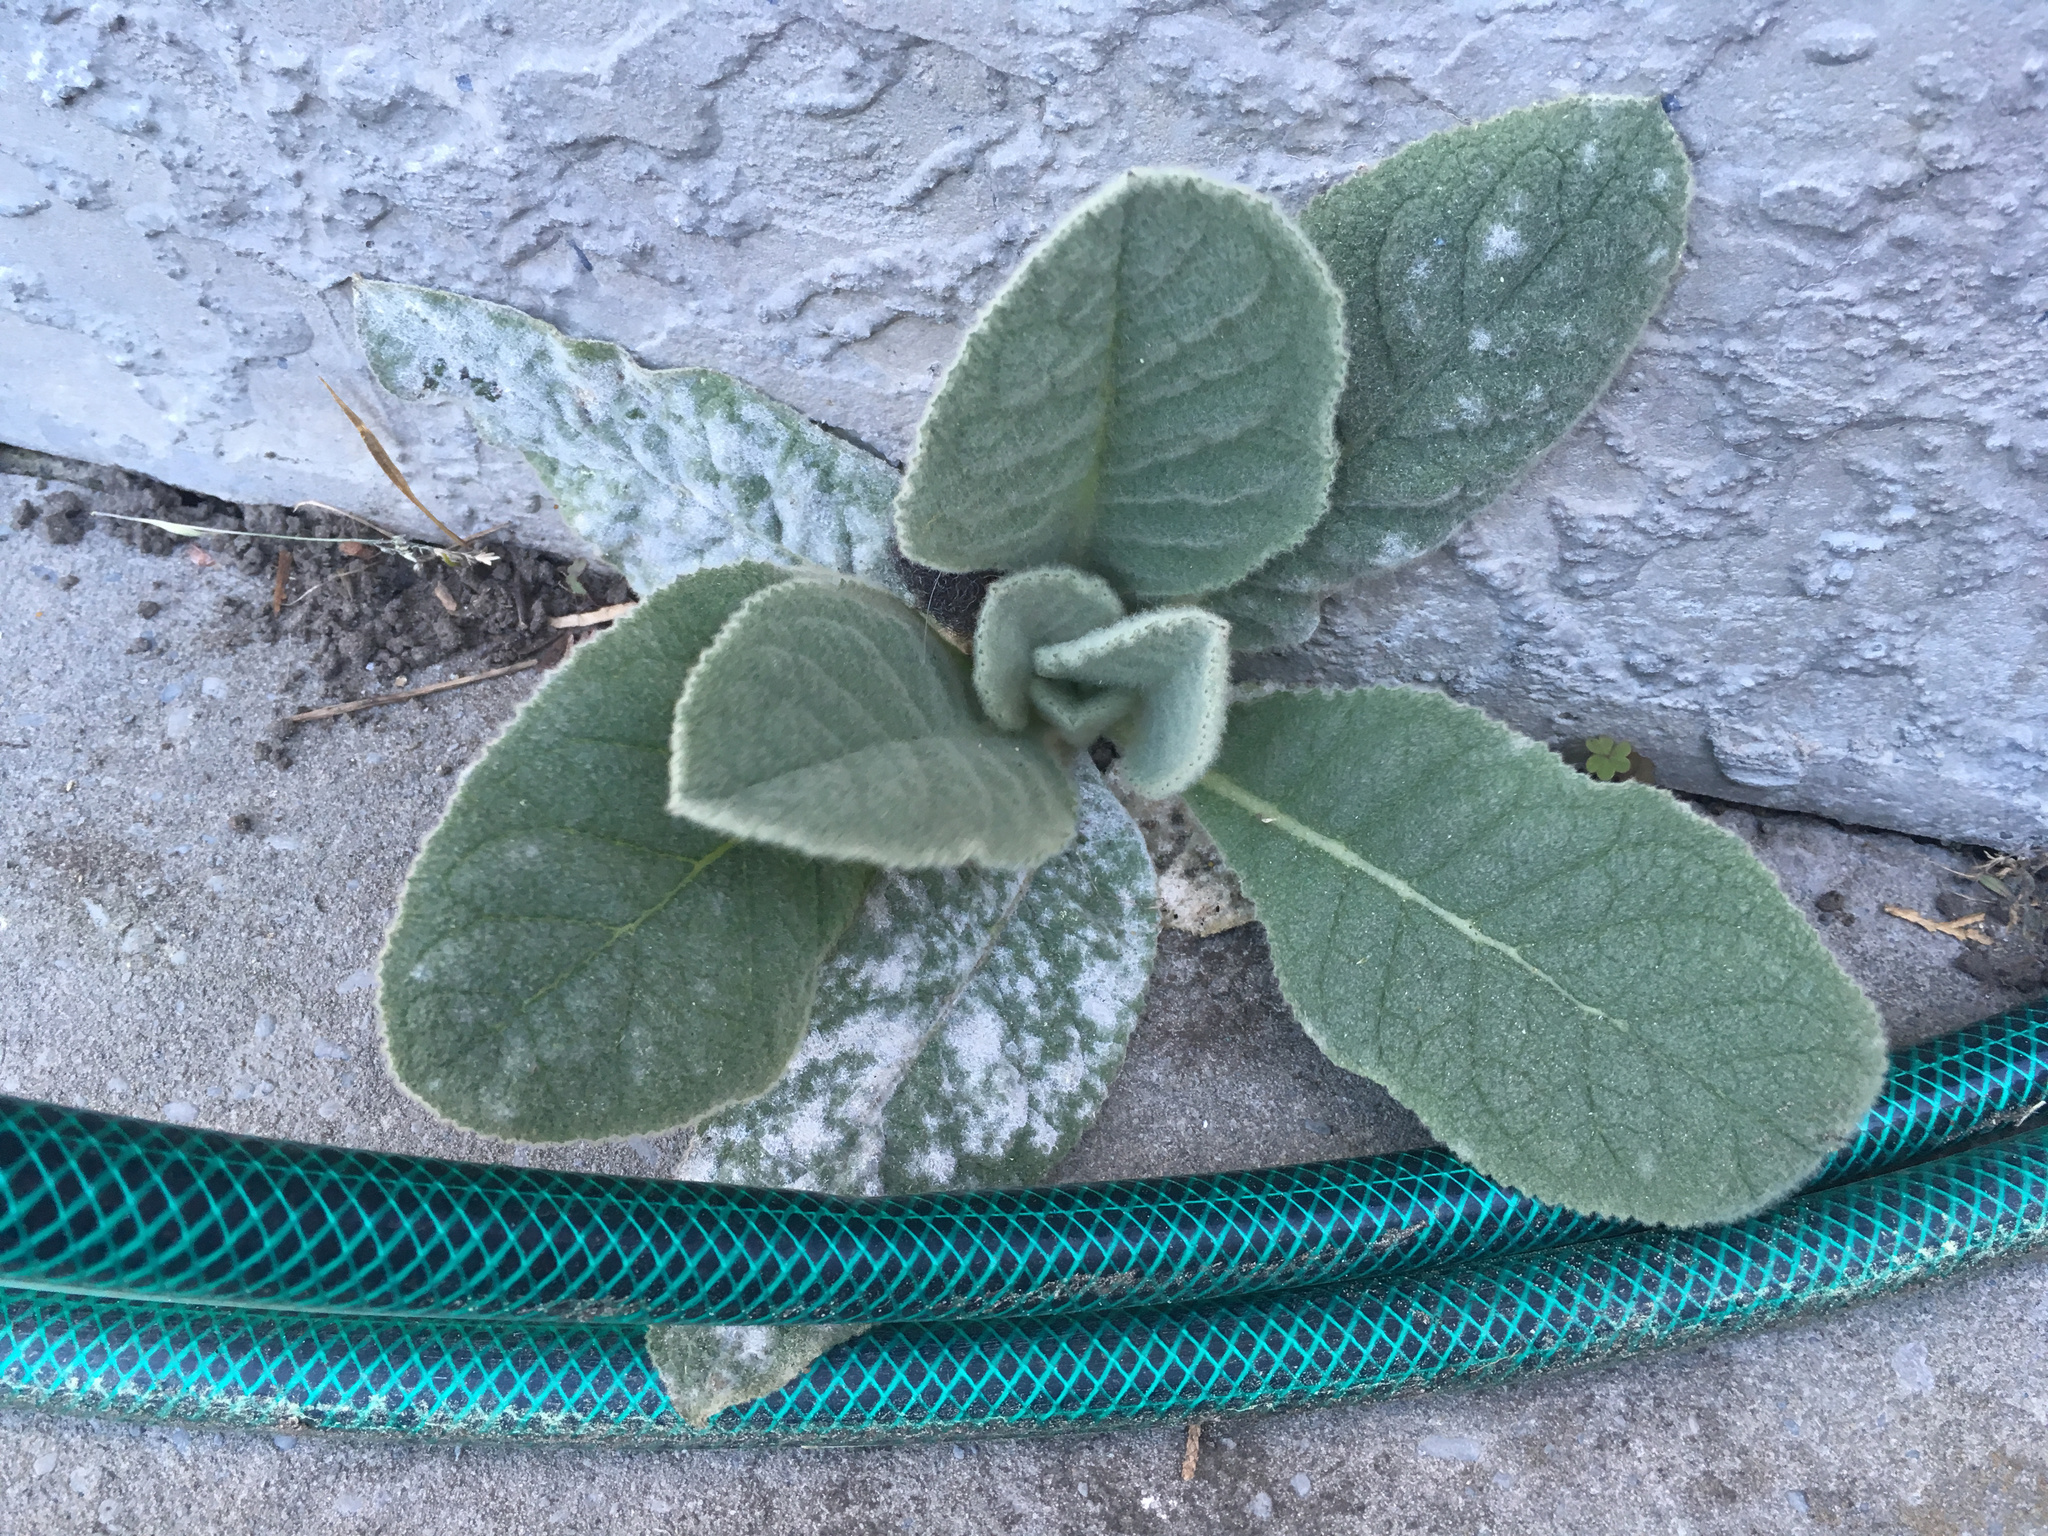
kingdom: Plantae
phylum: Tracheophyta
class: Magnoliopsida
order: Lamiales
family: Scrophulariaceae
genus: Verbascum
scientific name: Verbascum thapsus
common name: Common mullein
